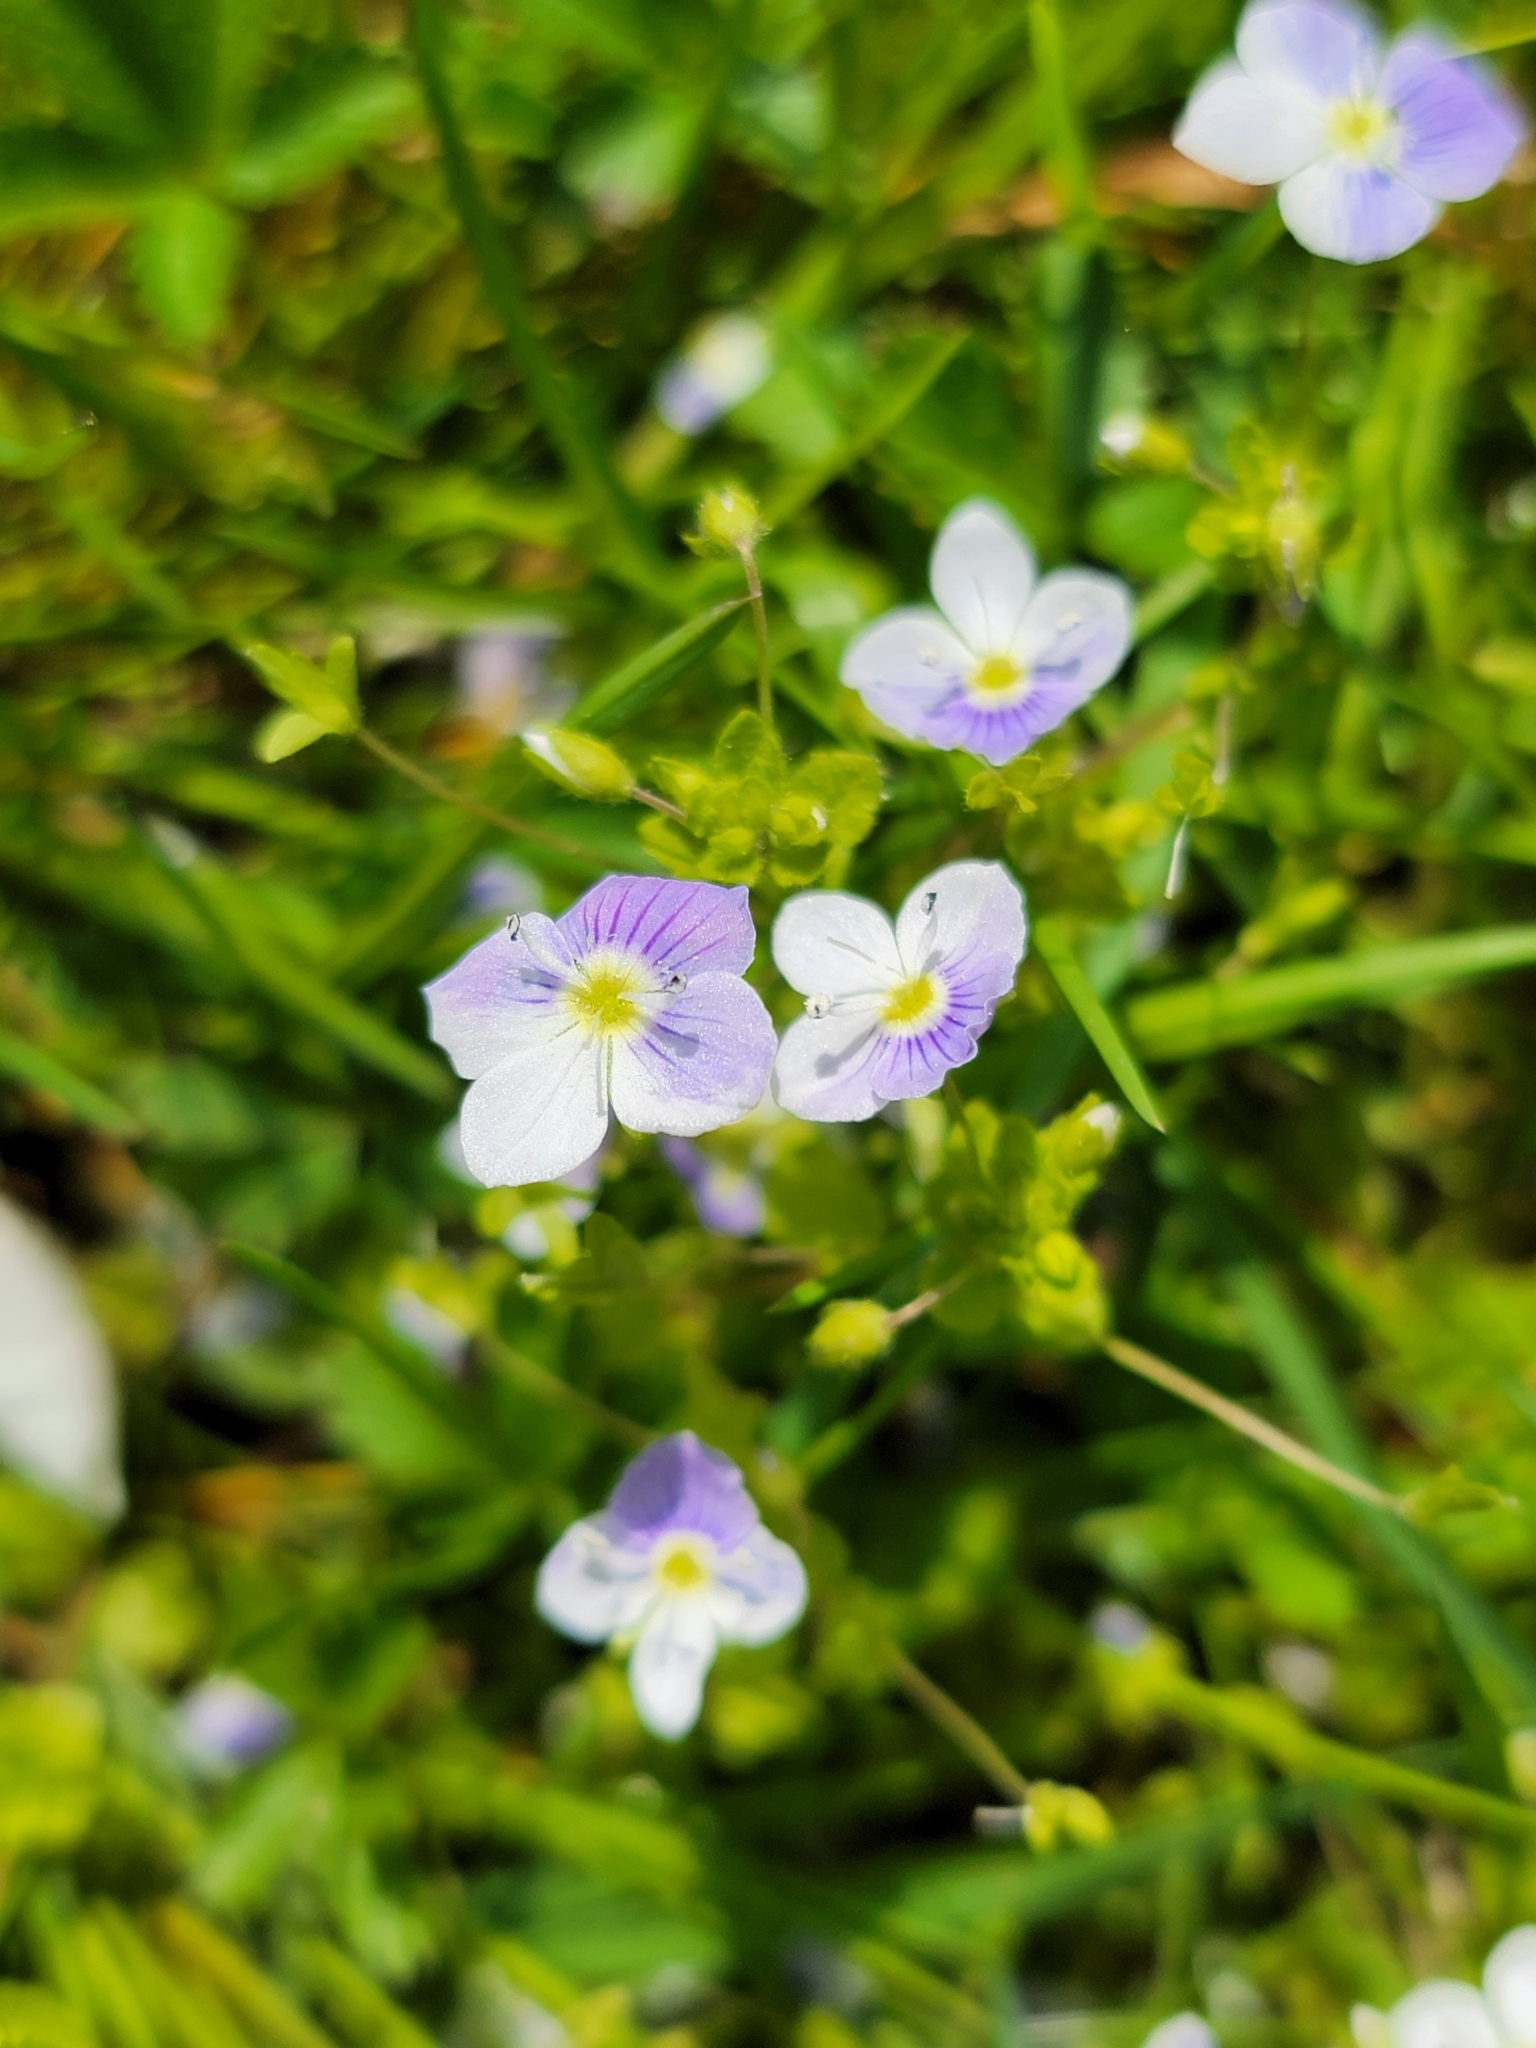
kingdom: Plantae
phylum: Tracheophyta
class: Magnoliopsida
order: Lamiales
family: Plantaginaceae
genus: Veronica
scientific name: Veronica filiformis
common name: Slender speedwell
